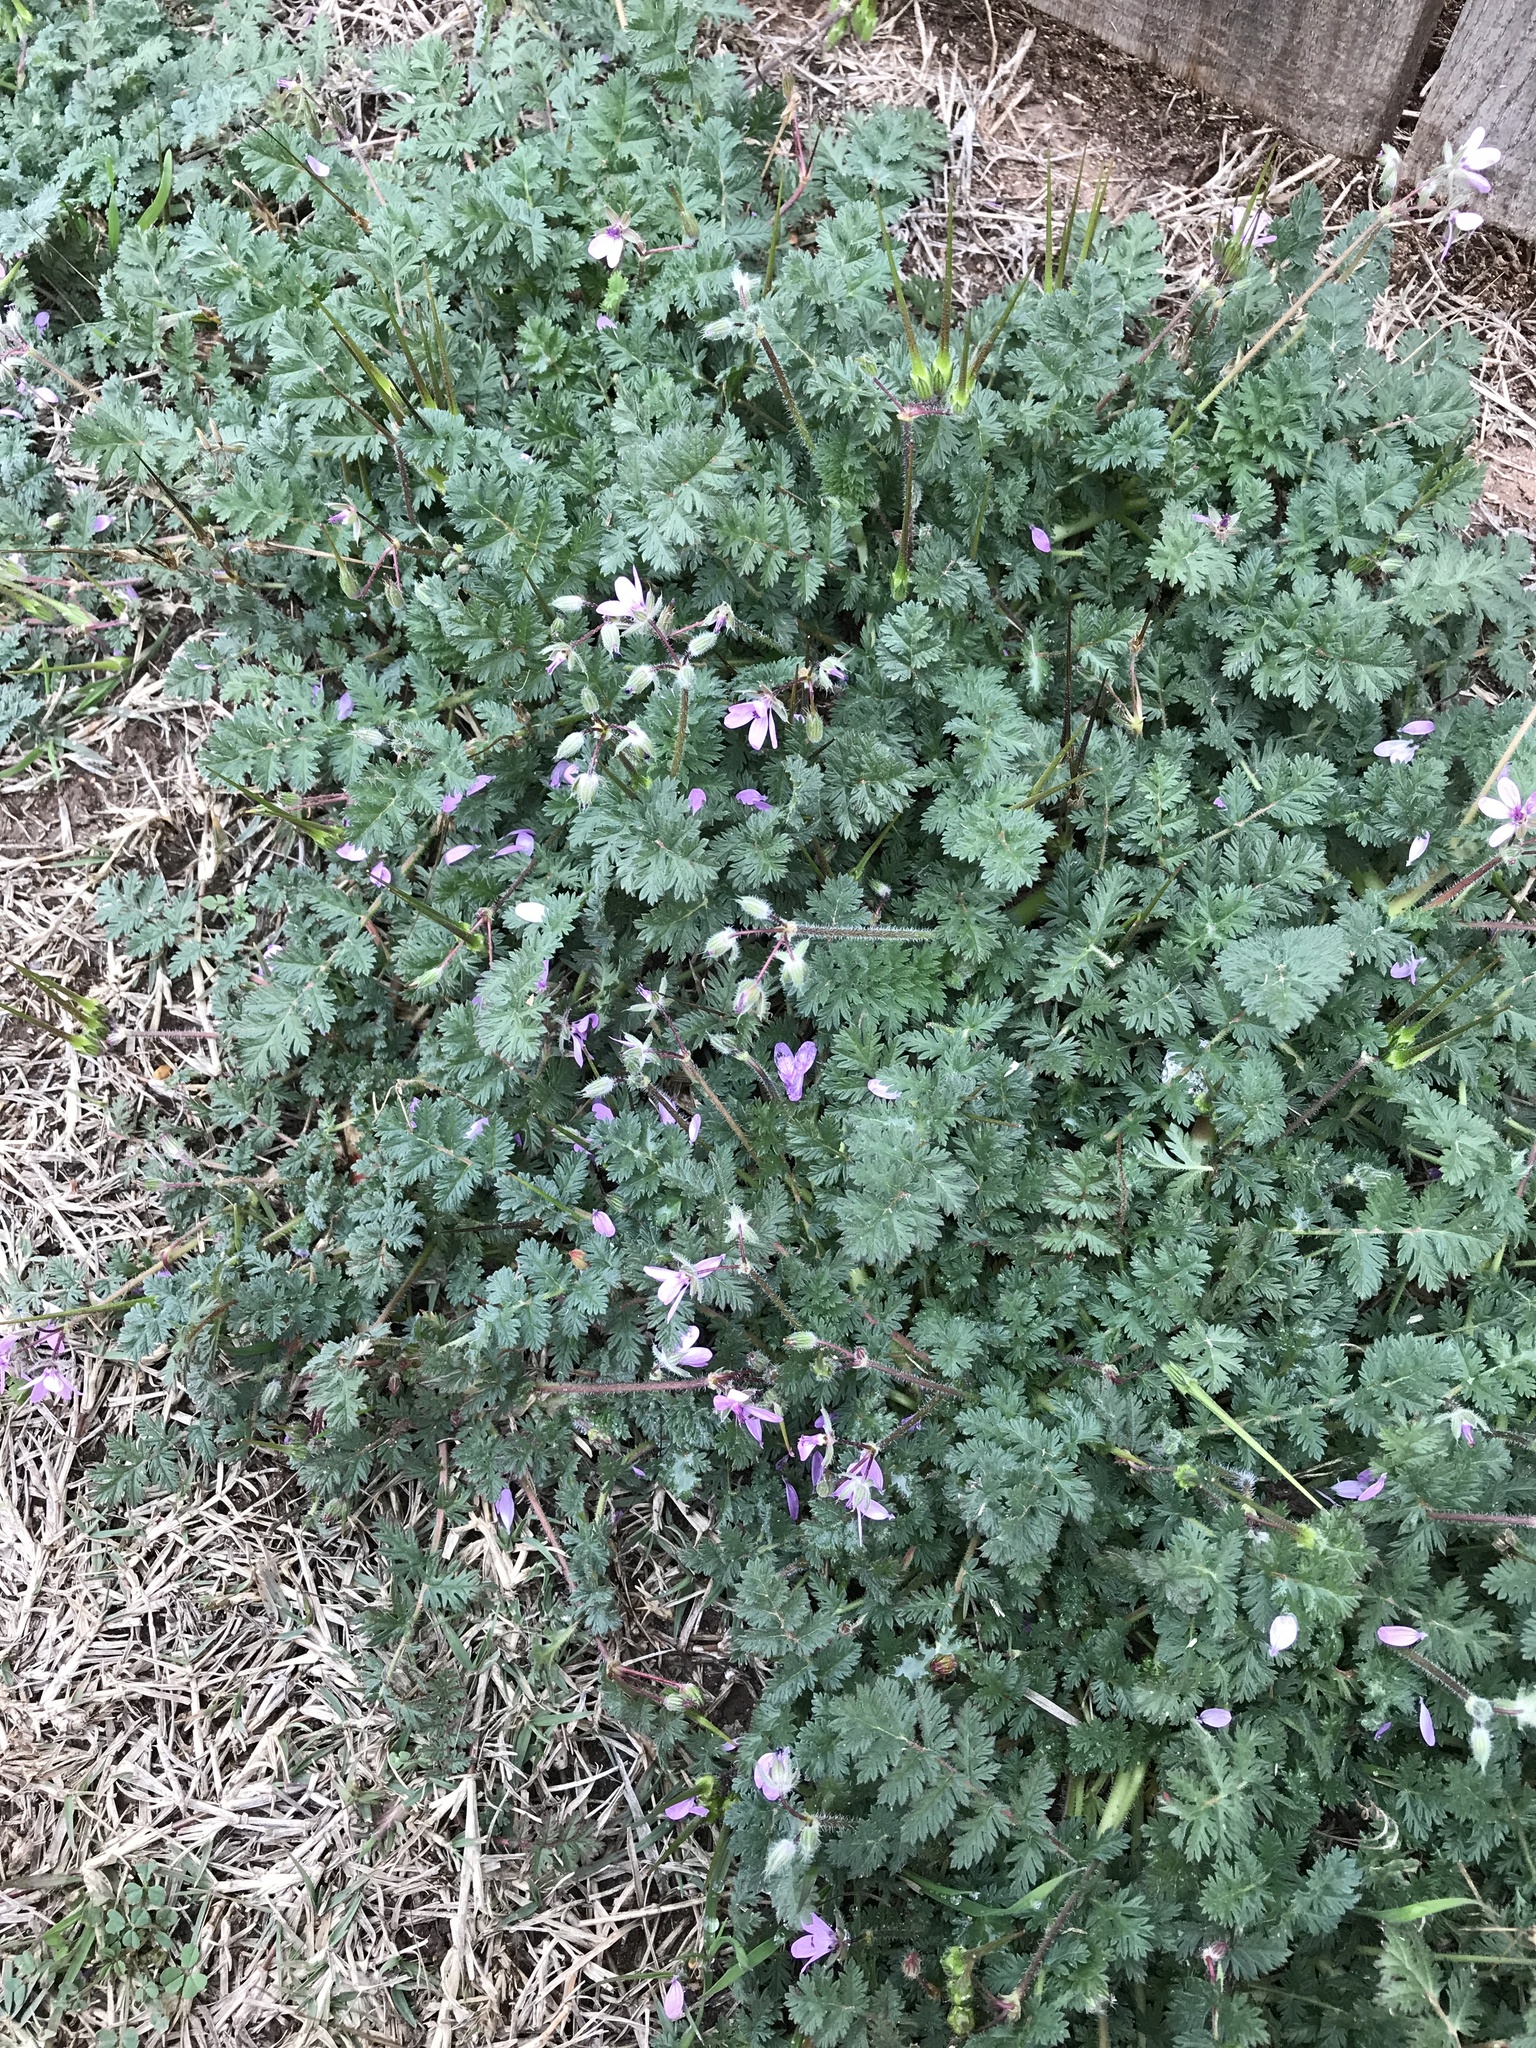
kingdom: Plantae
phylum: Tracheophyta
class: Magnoliopsida
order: Geraniales
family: Geraniaceae
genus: Erodium
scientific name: Erodium cicutarium
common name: Common stork's-bill
